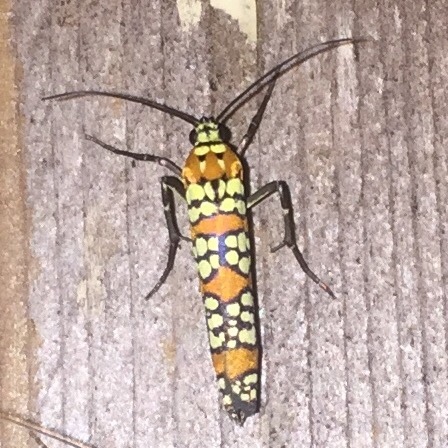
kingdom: Animalia
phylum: Arthropoda
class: Insecta
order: Lepidoptera
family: Attevidae
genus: Atteva
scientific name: Atteva punctella
